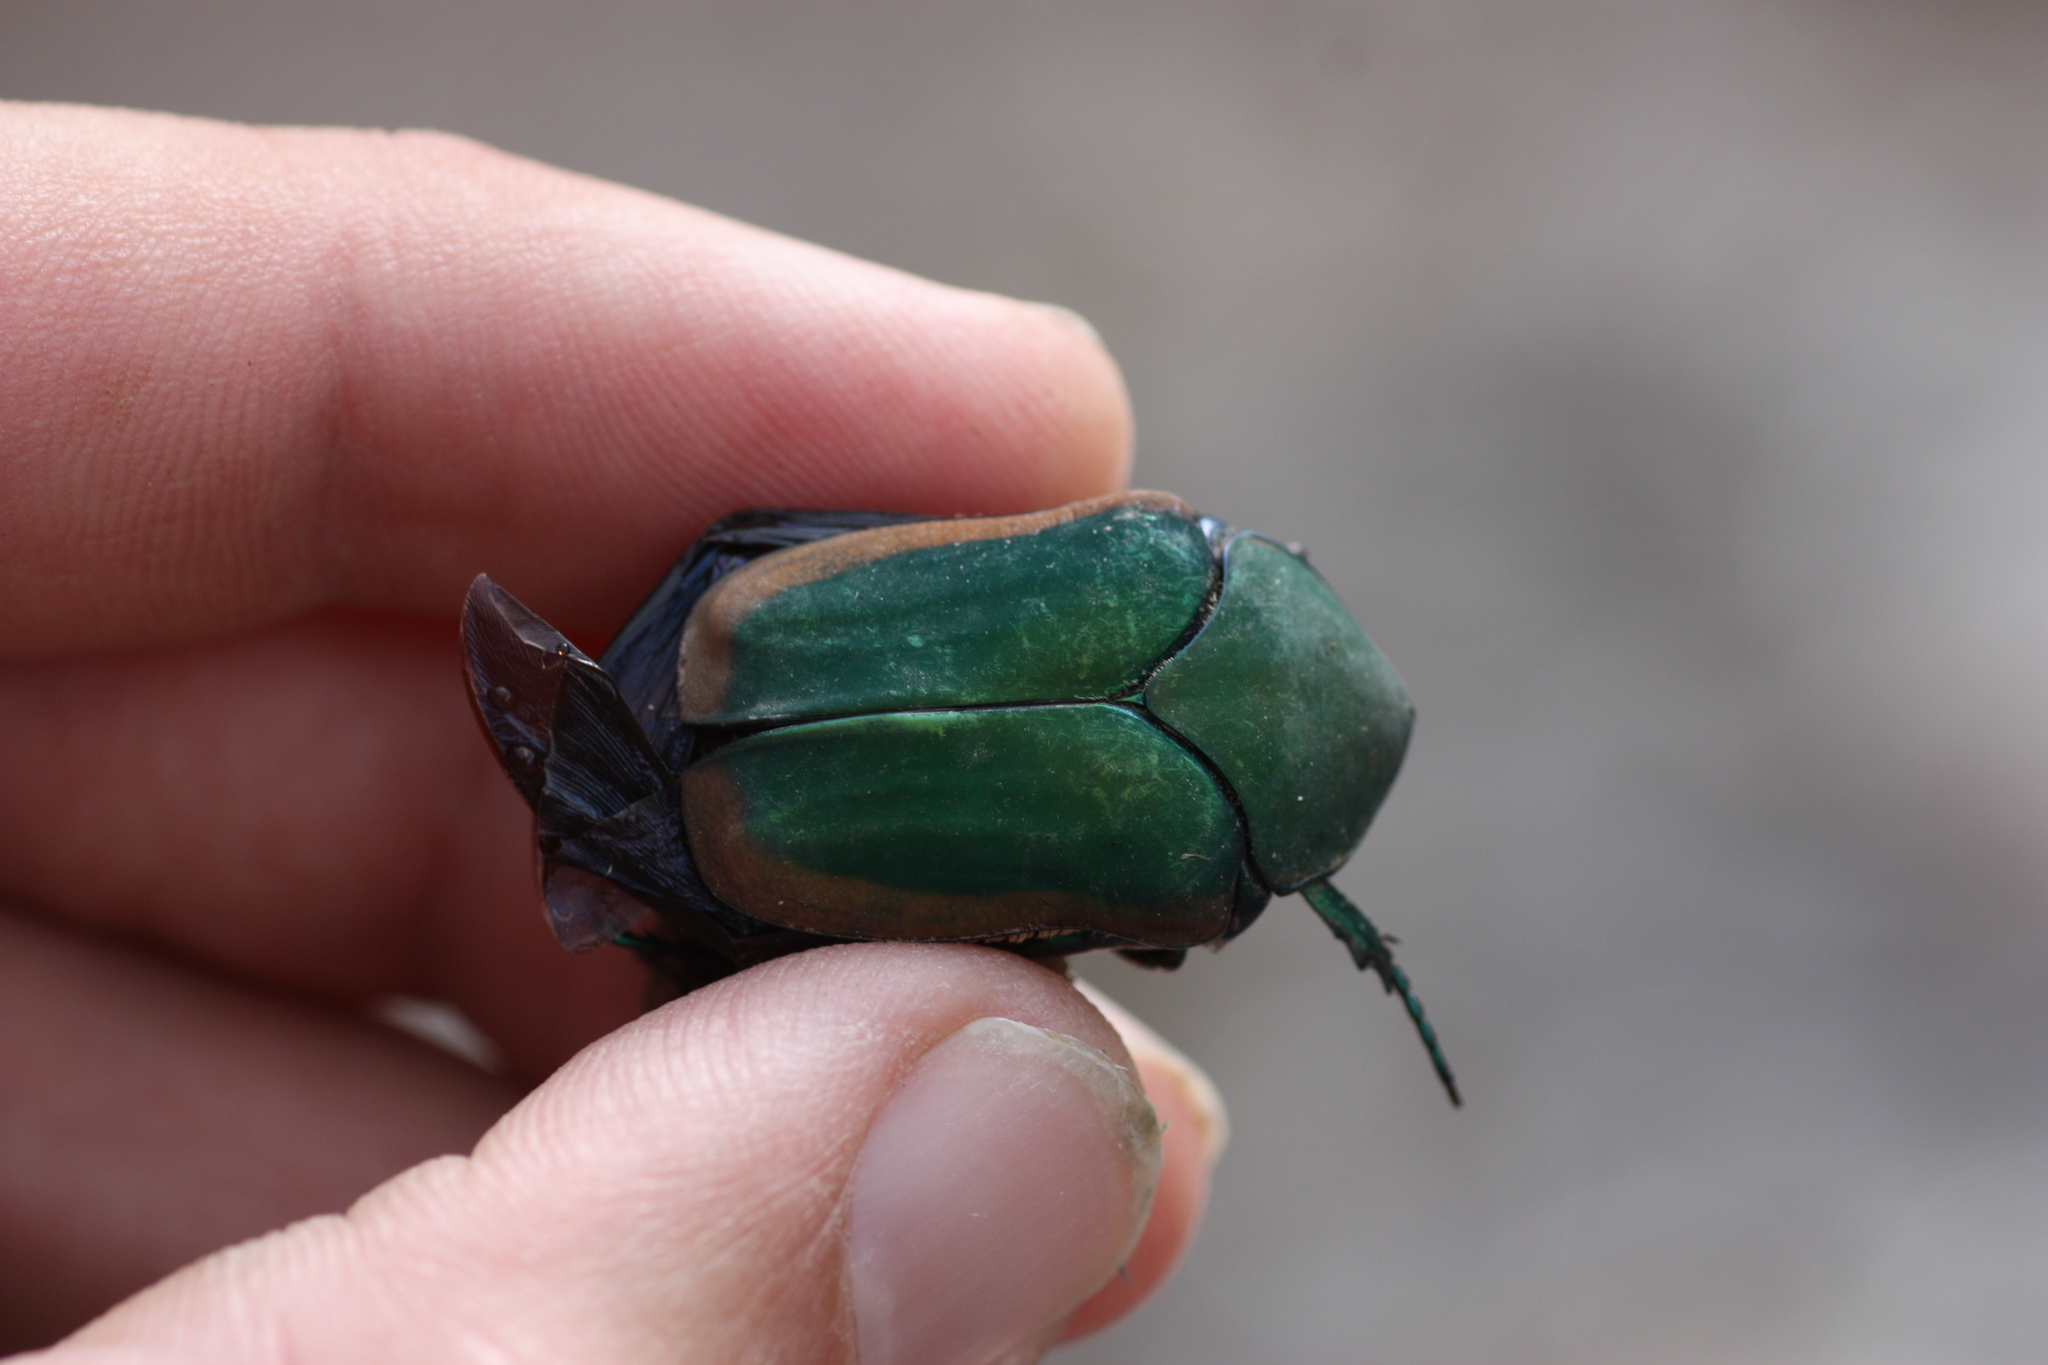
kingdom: Animalia
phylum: Arthropoda
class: Insecta
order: Coleoptera
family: Scarabaeidae
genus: Cotinis
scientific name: Cotinis mutabilis
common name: Figeater beetle
